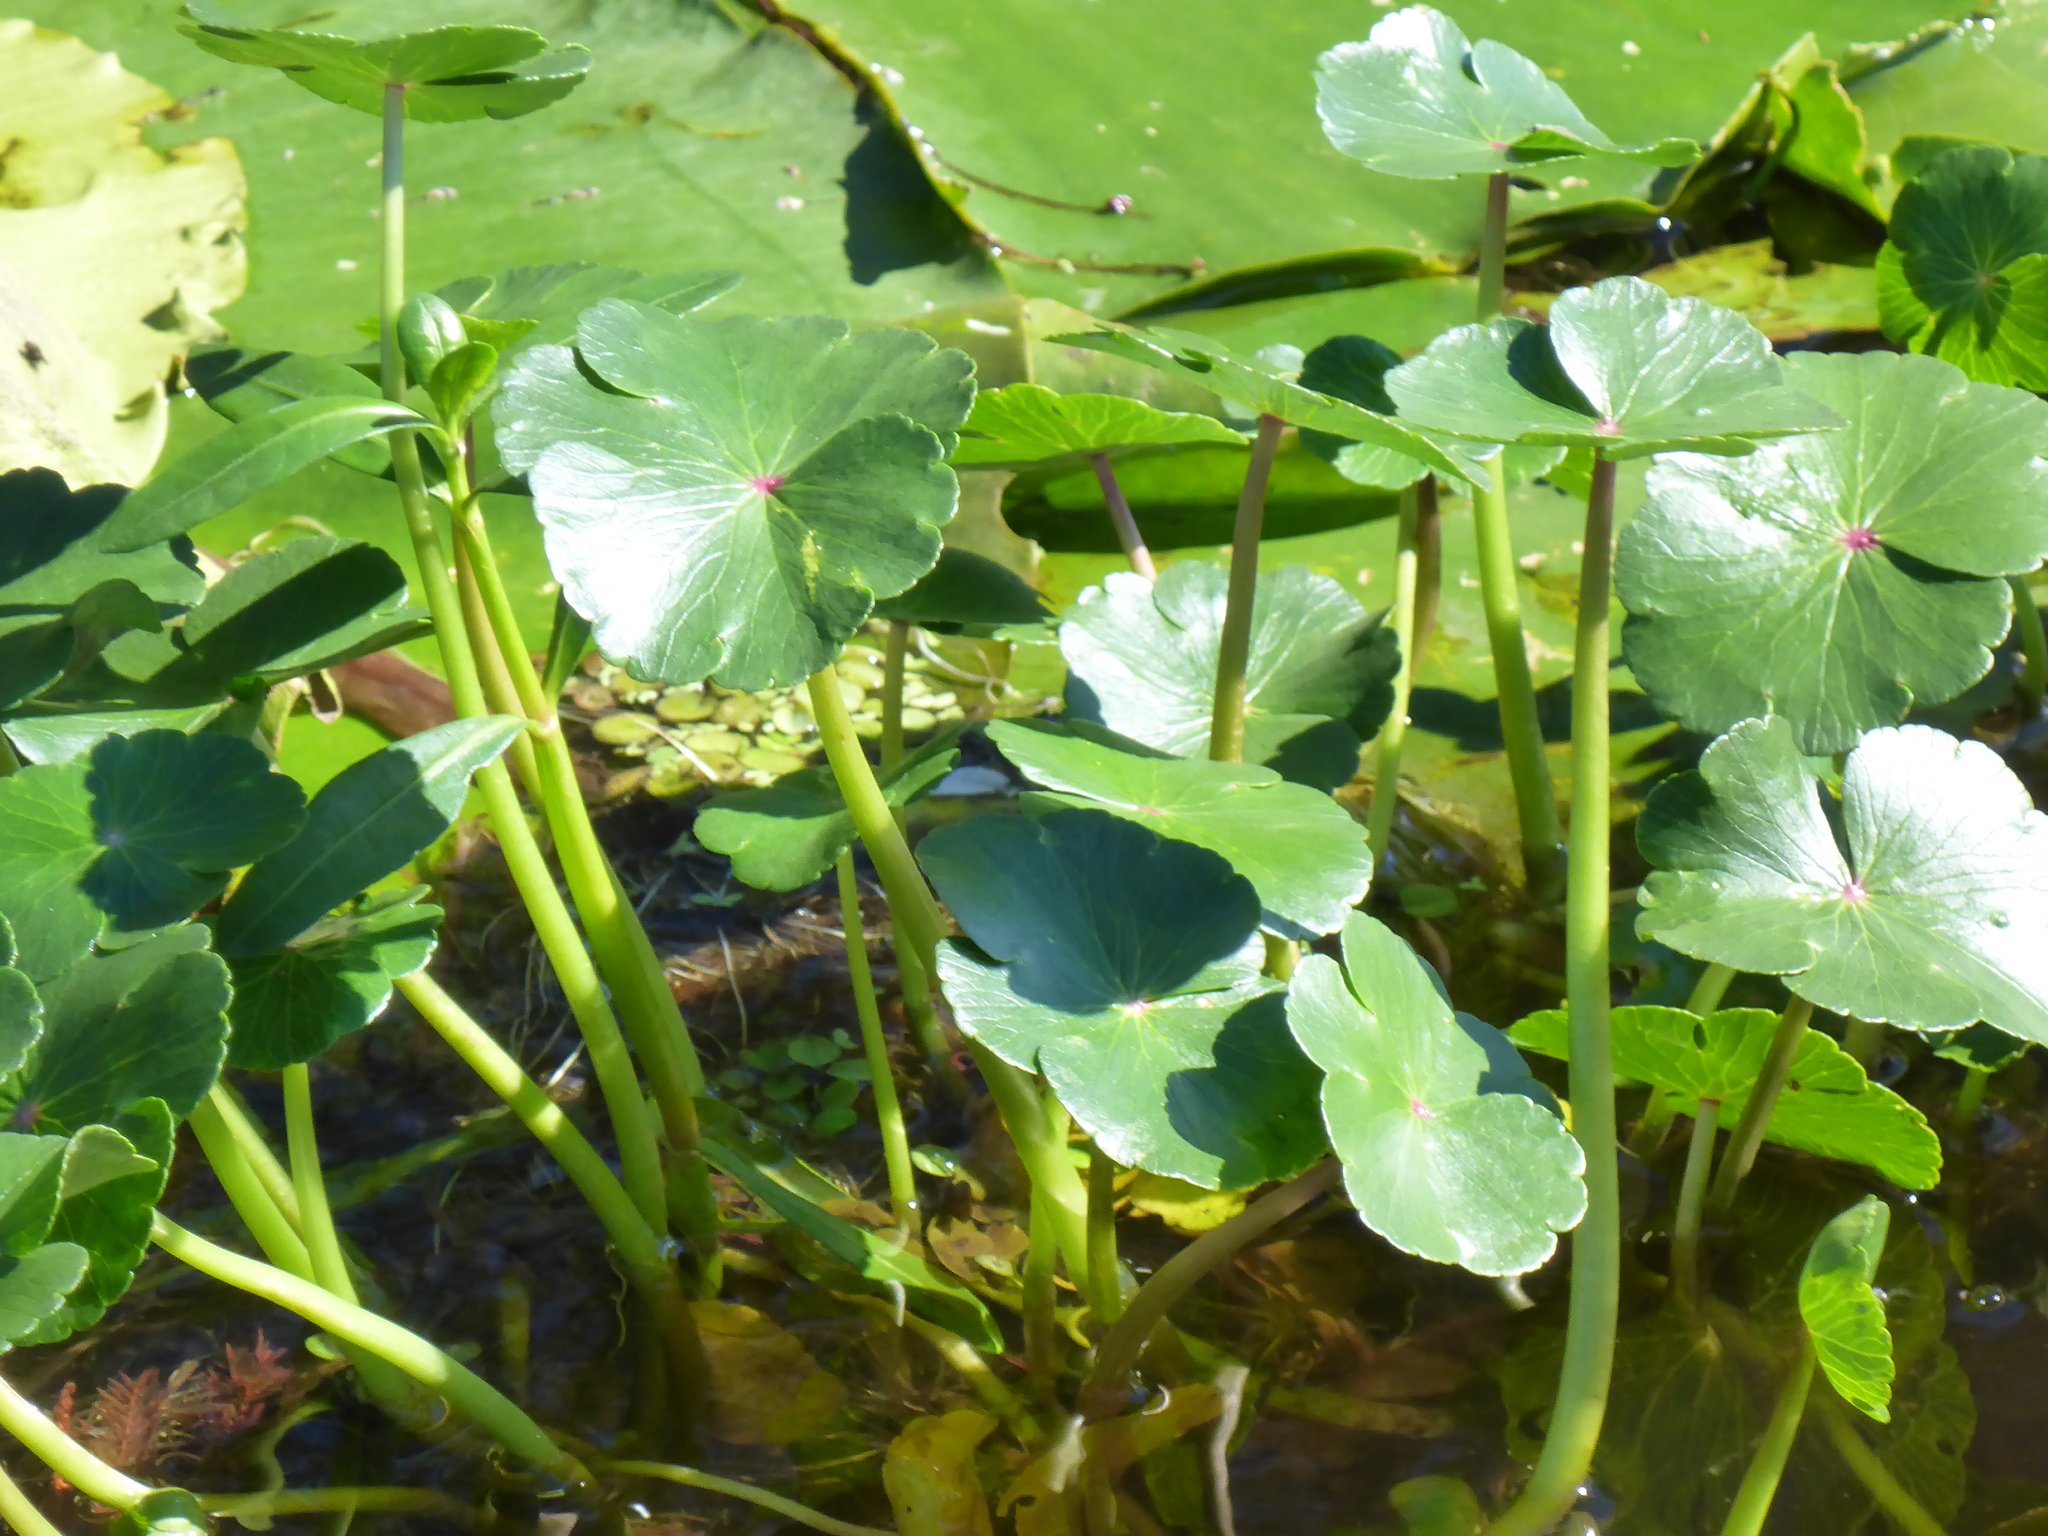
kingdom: Plantae
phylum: Tracheophyta
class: Magnoliopsida
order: Apiales
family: Araliaceae
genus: Hydrocotyle
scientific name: Hydrocotyle ranunculoides
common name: Floating pennywort
